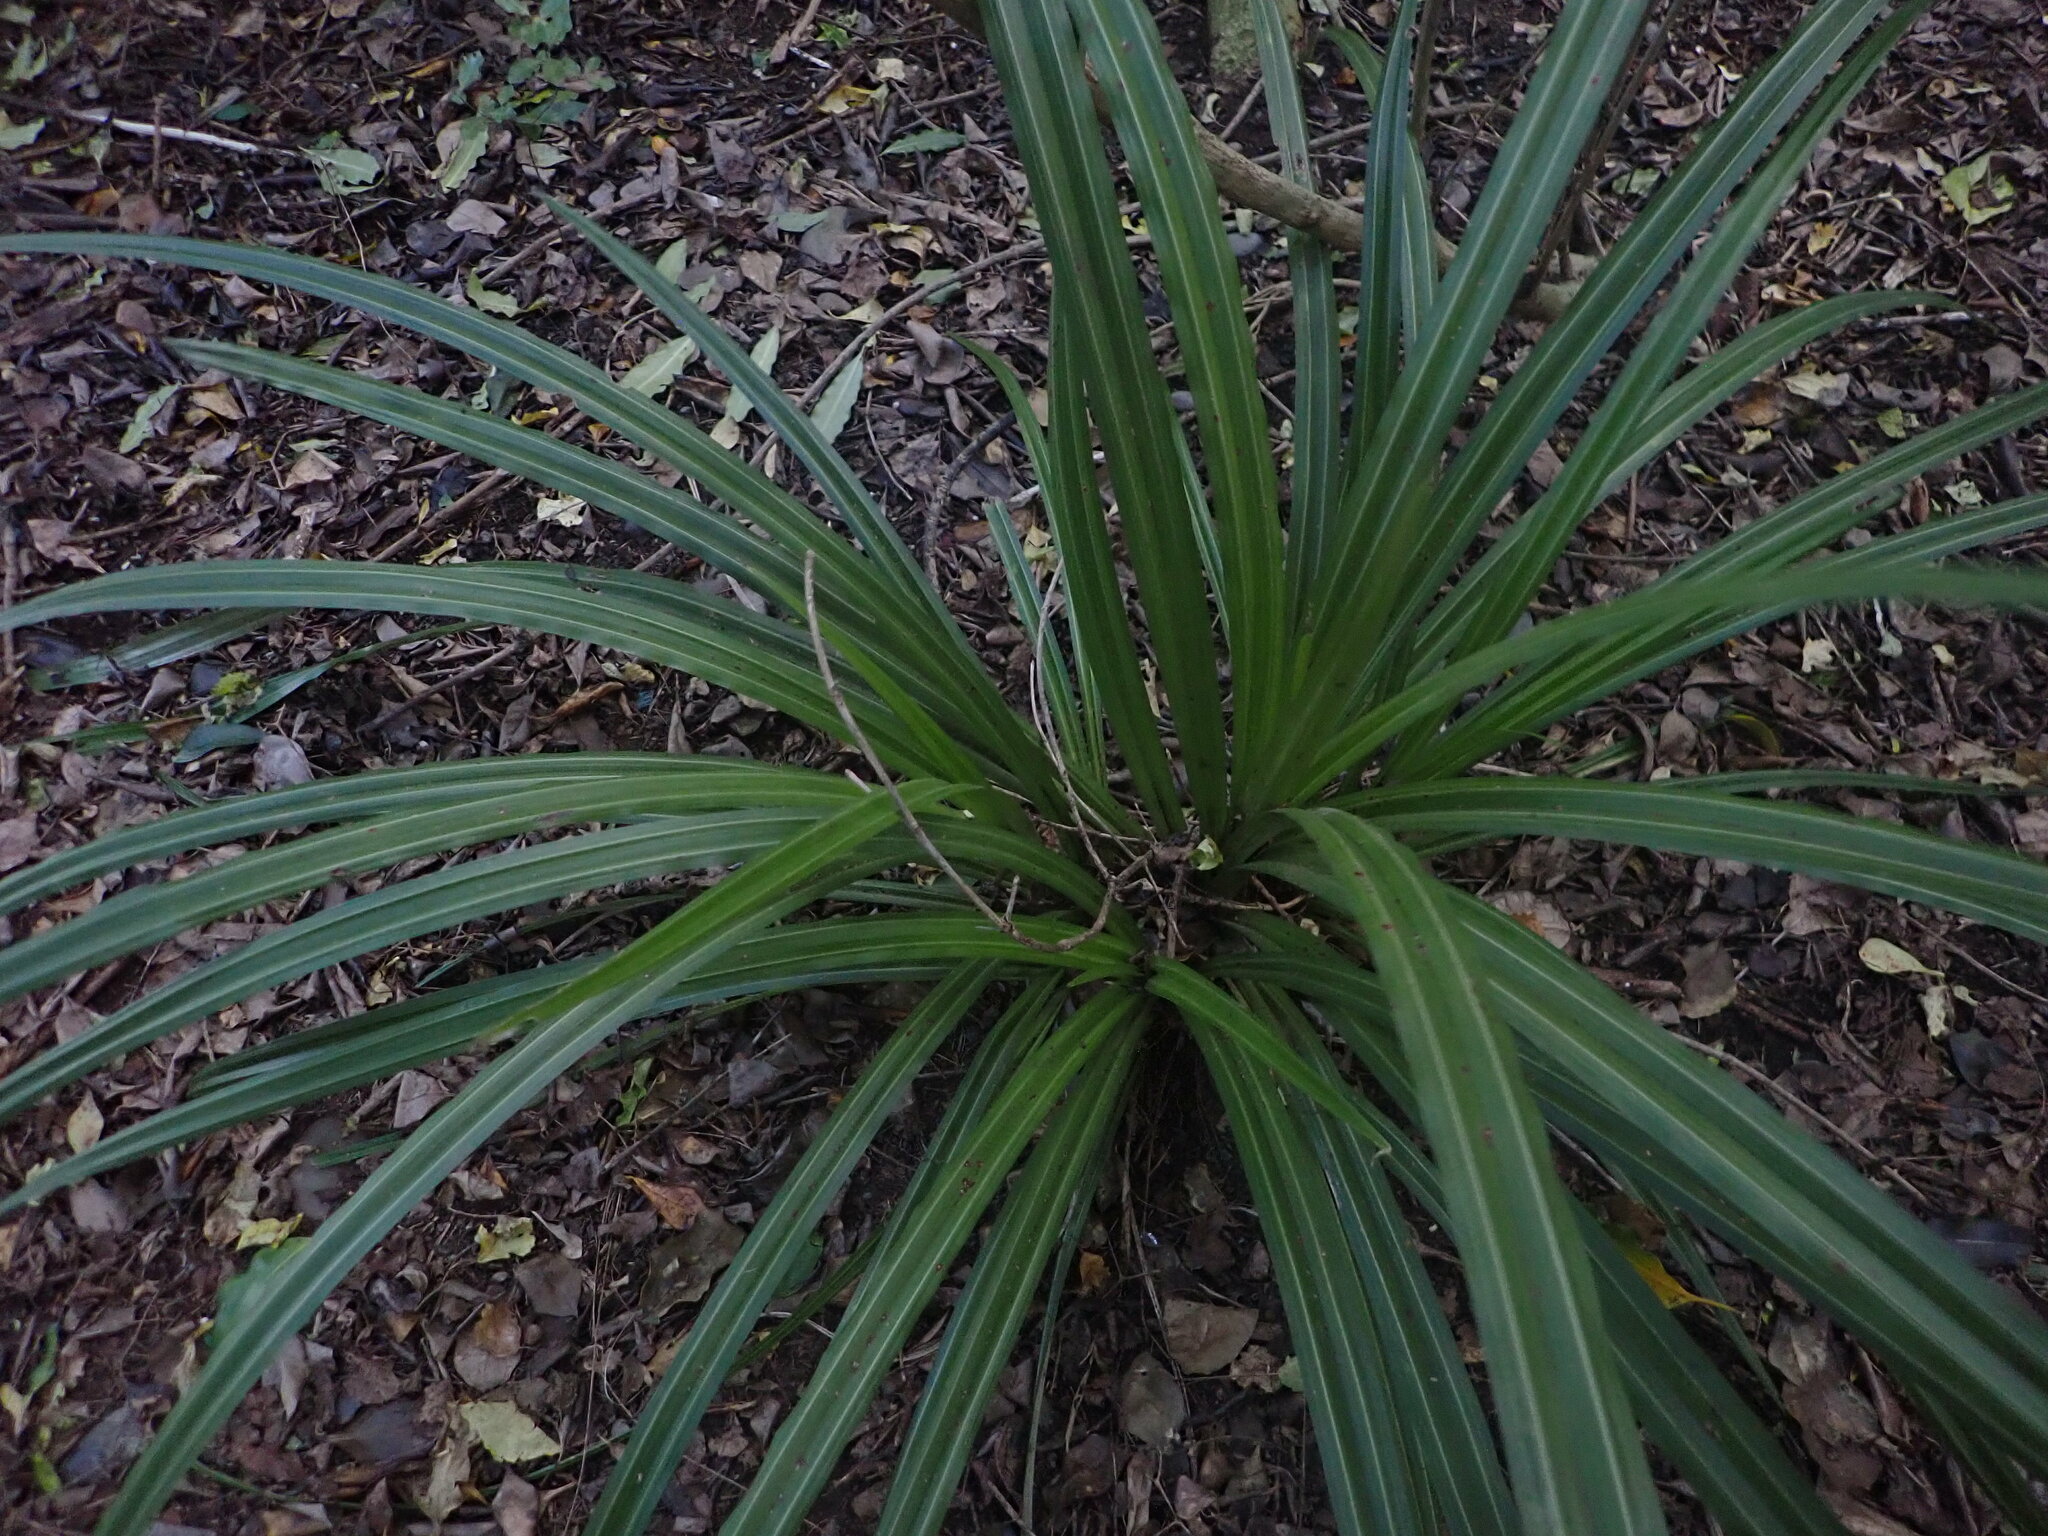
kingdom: Plantae
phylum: Tracheophyta
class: Liliopsida
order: Asparagales
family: Asteliaceae
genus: Astelia
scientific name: Astelia fragrans
